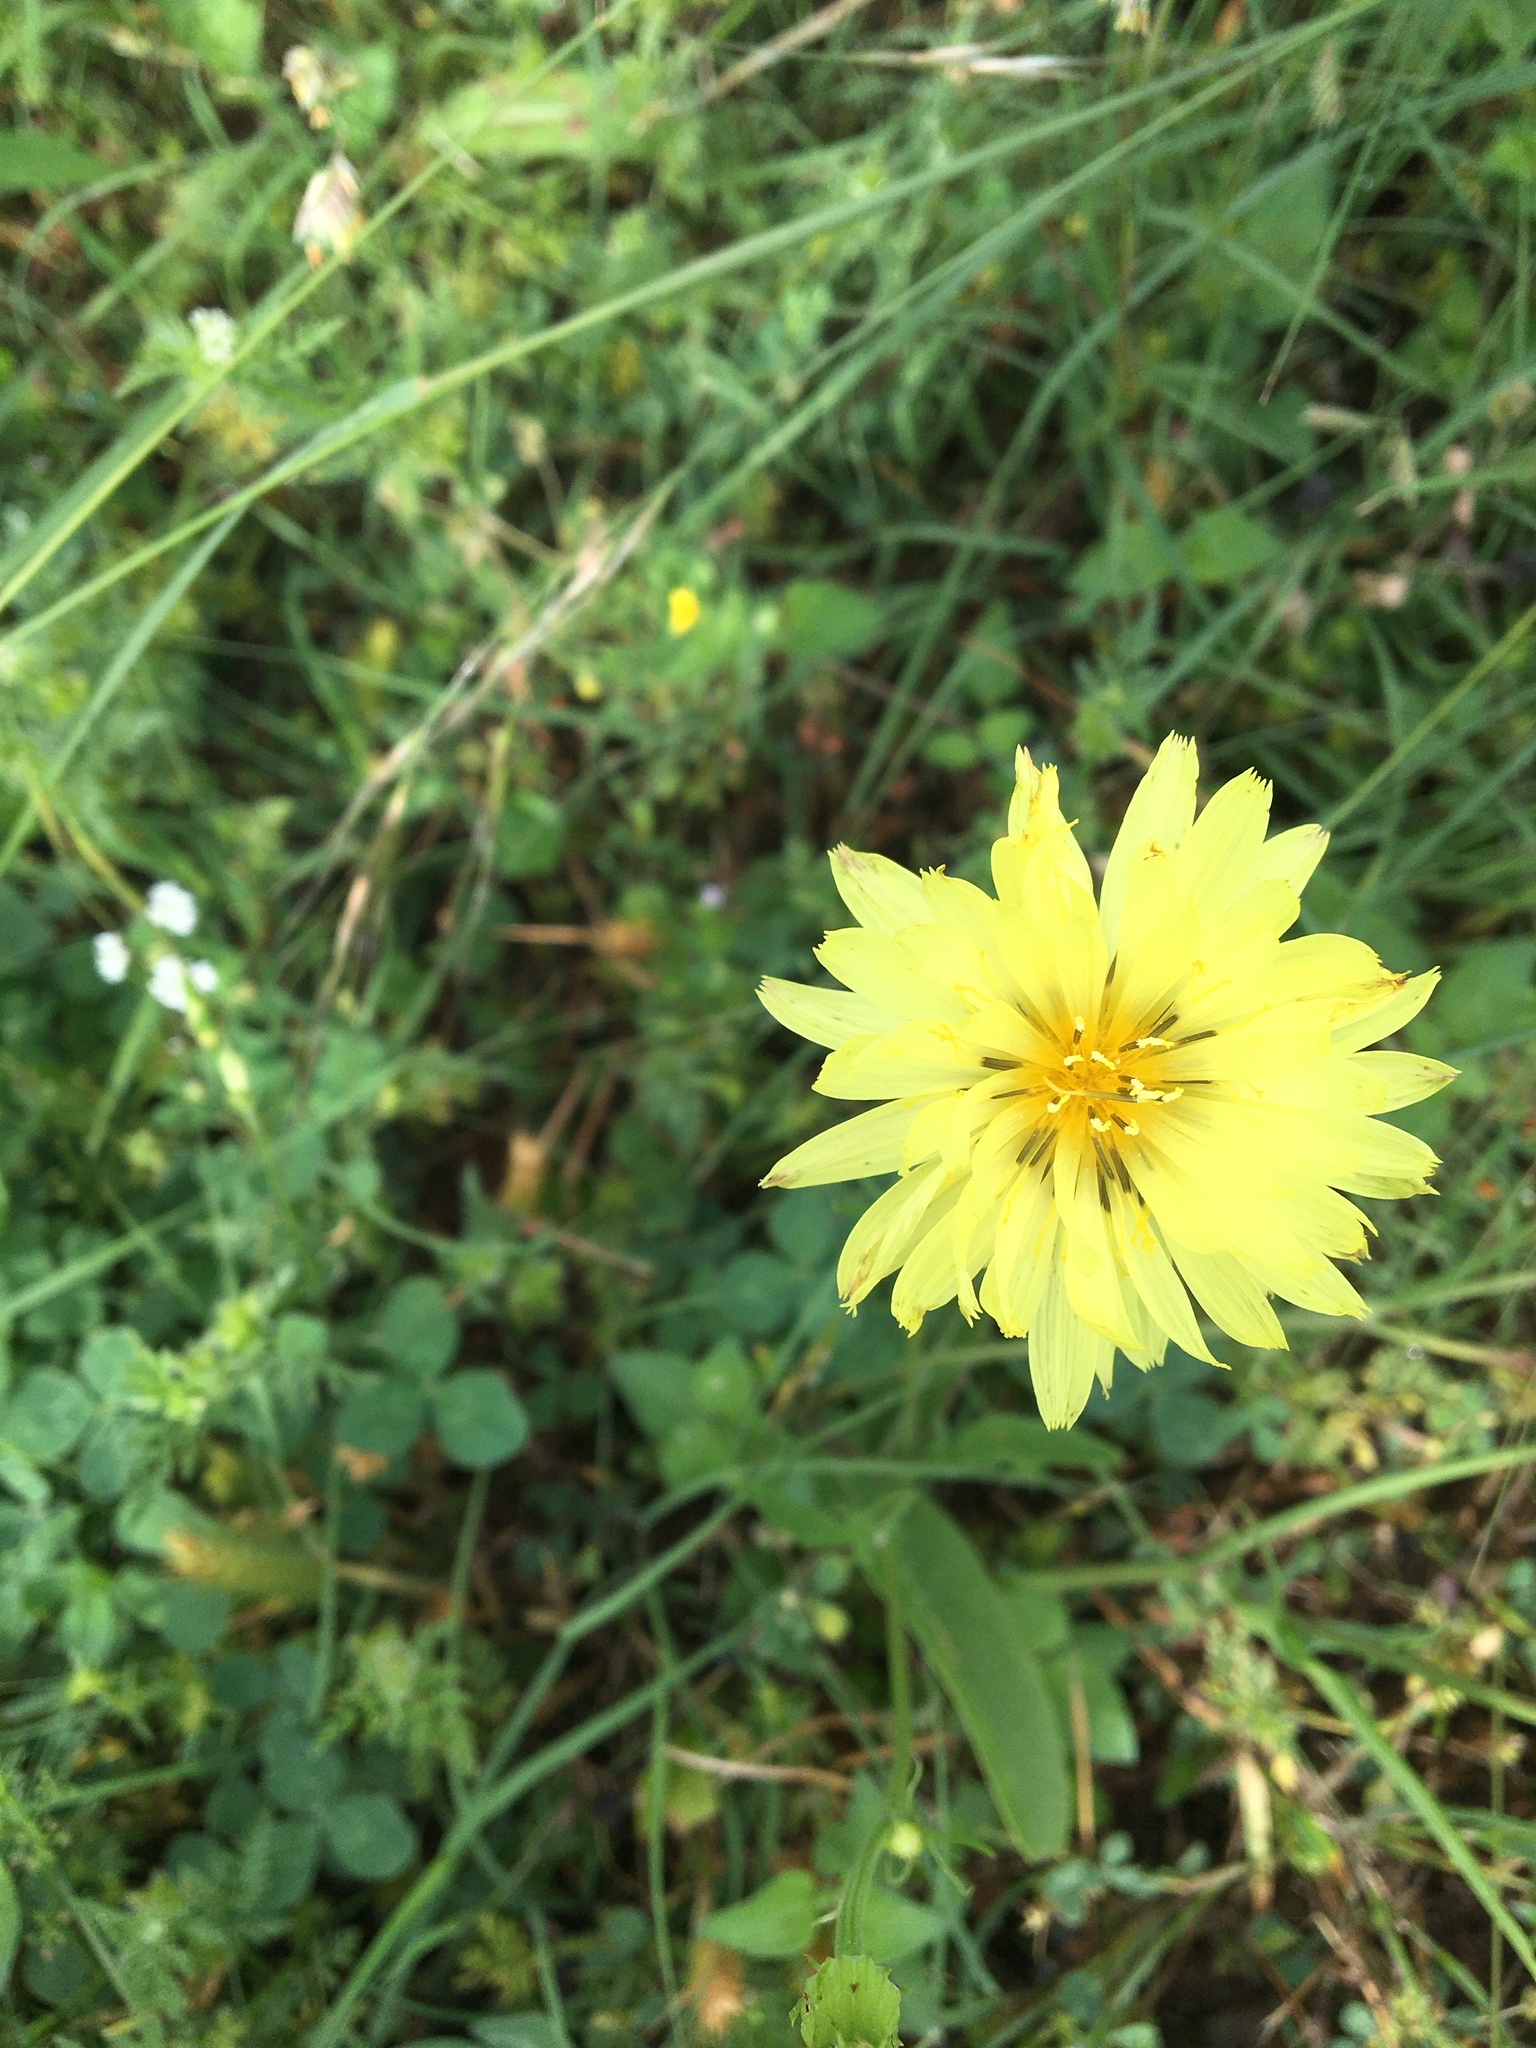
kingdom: Plantae
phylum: Tracheophyta
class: Magnoliopsida
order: Asterales
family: Asteraceae
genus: Pyrrhopappus
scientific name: Pyrrhopappus pauciflorus
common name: Texas false dandelion
